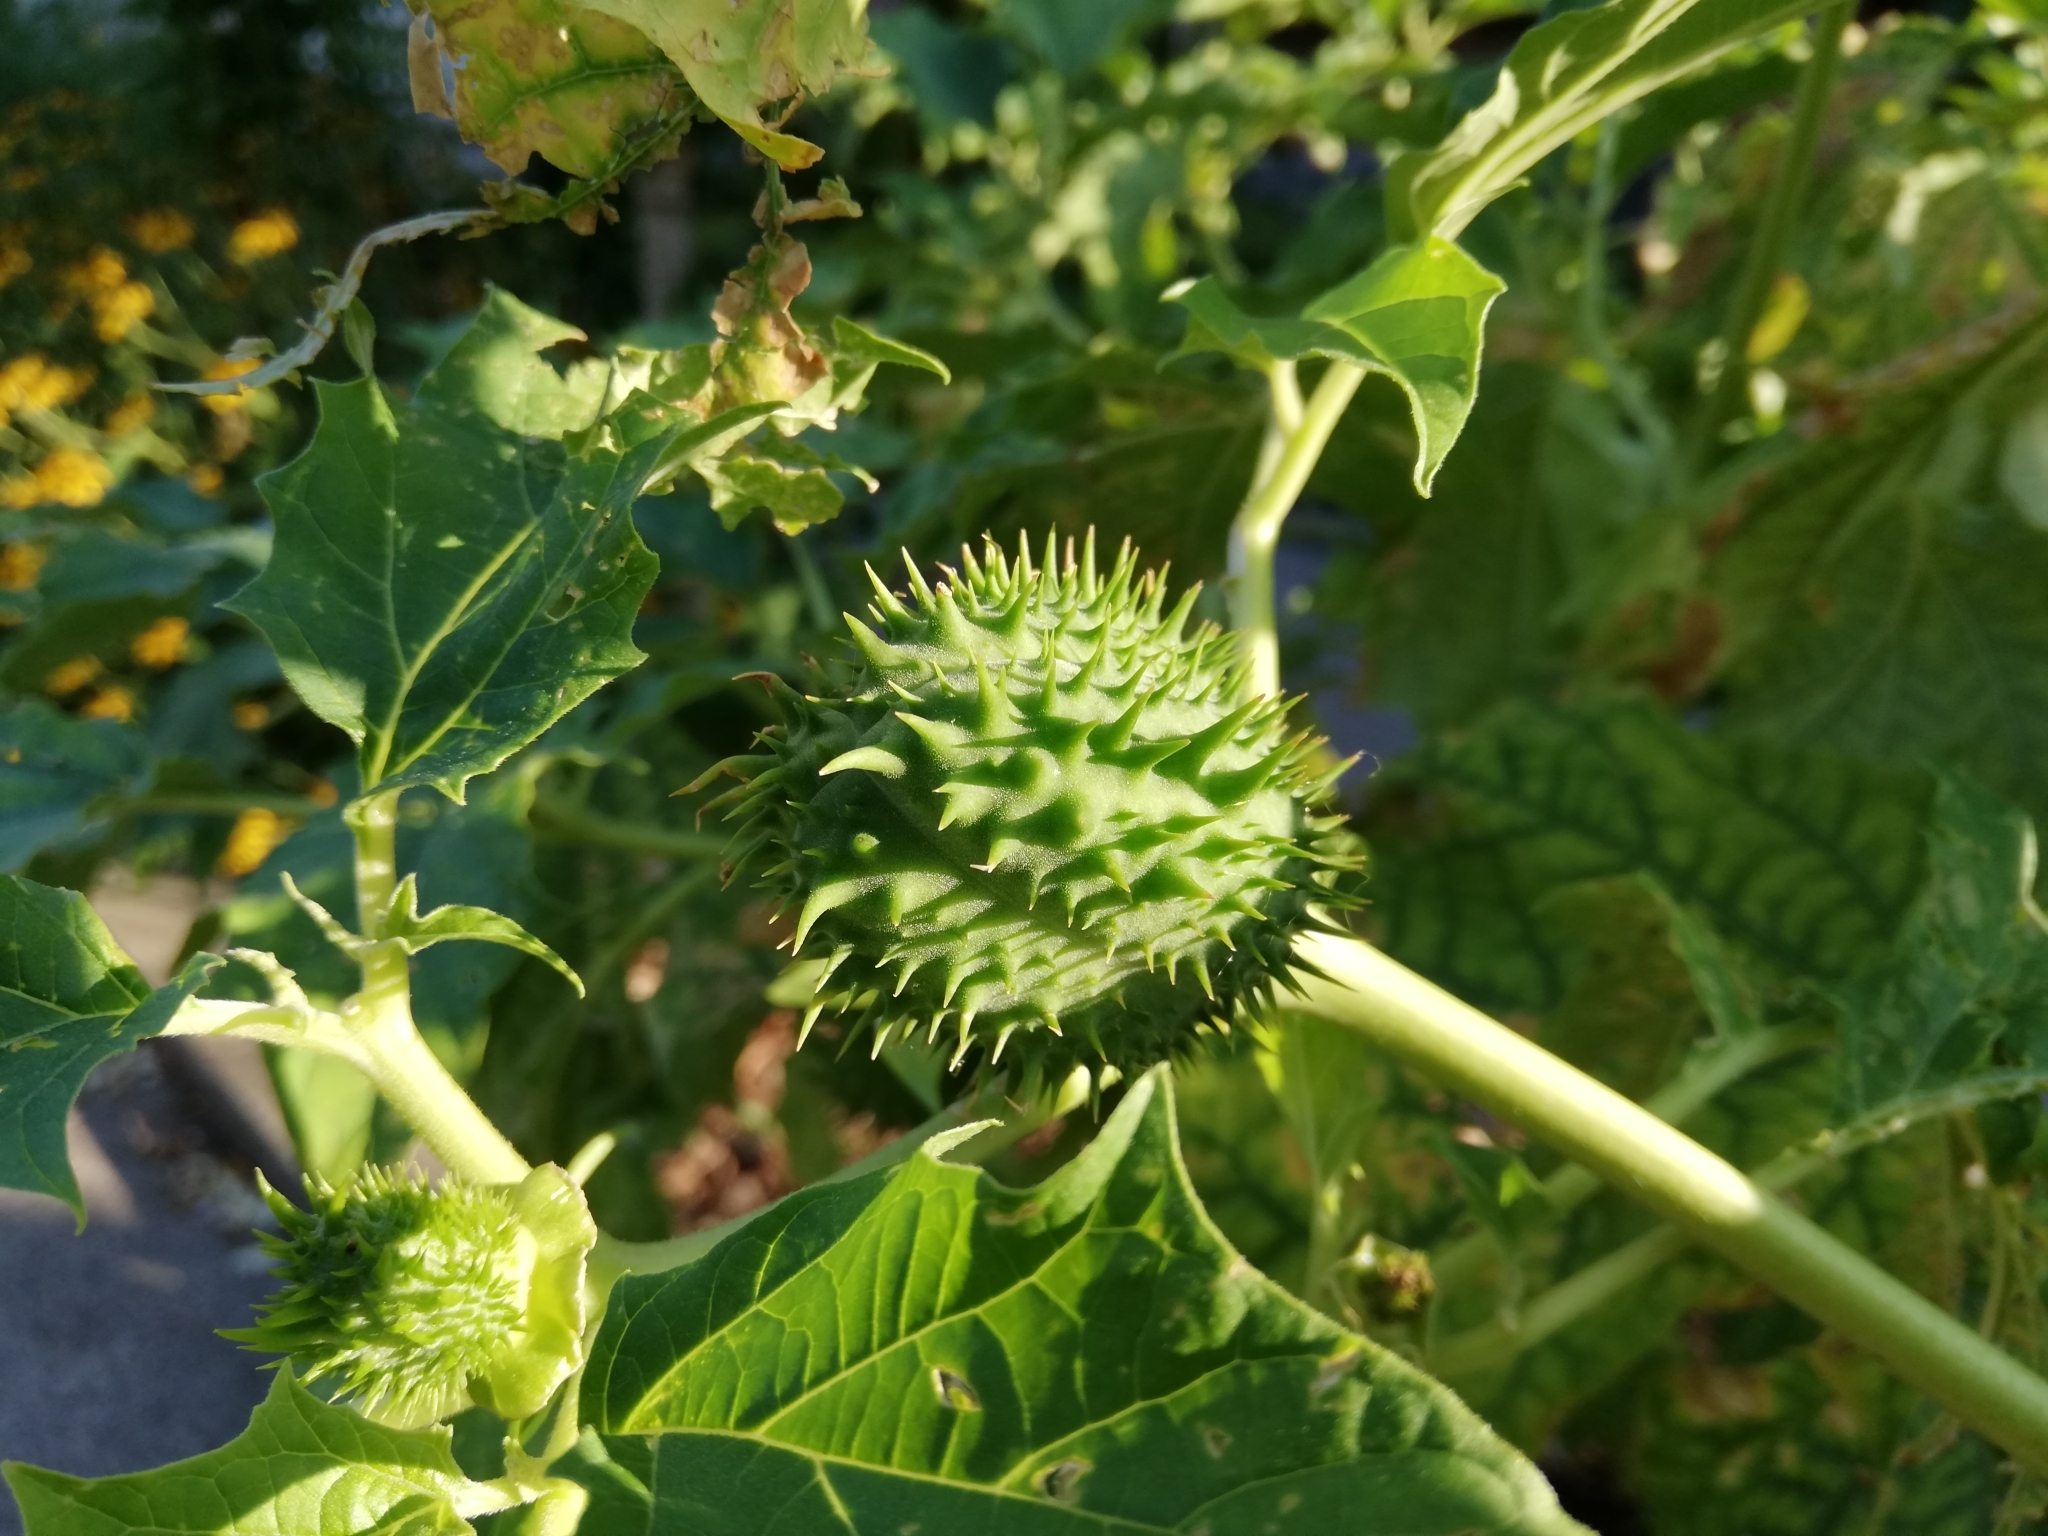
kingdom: Plantae
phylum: Tracheophyta
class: Magnoliopsida
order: Solanales
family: Solanaceae
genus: Datura
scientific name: Datura stramonium
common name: Thorn-apple
